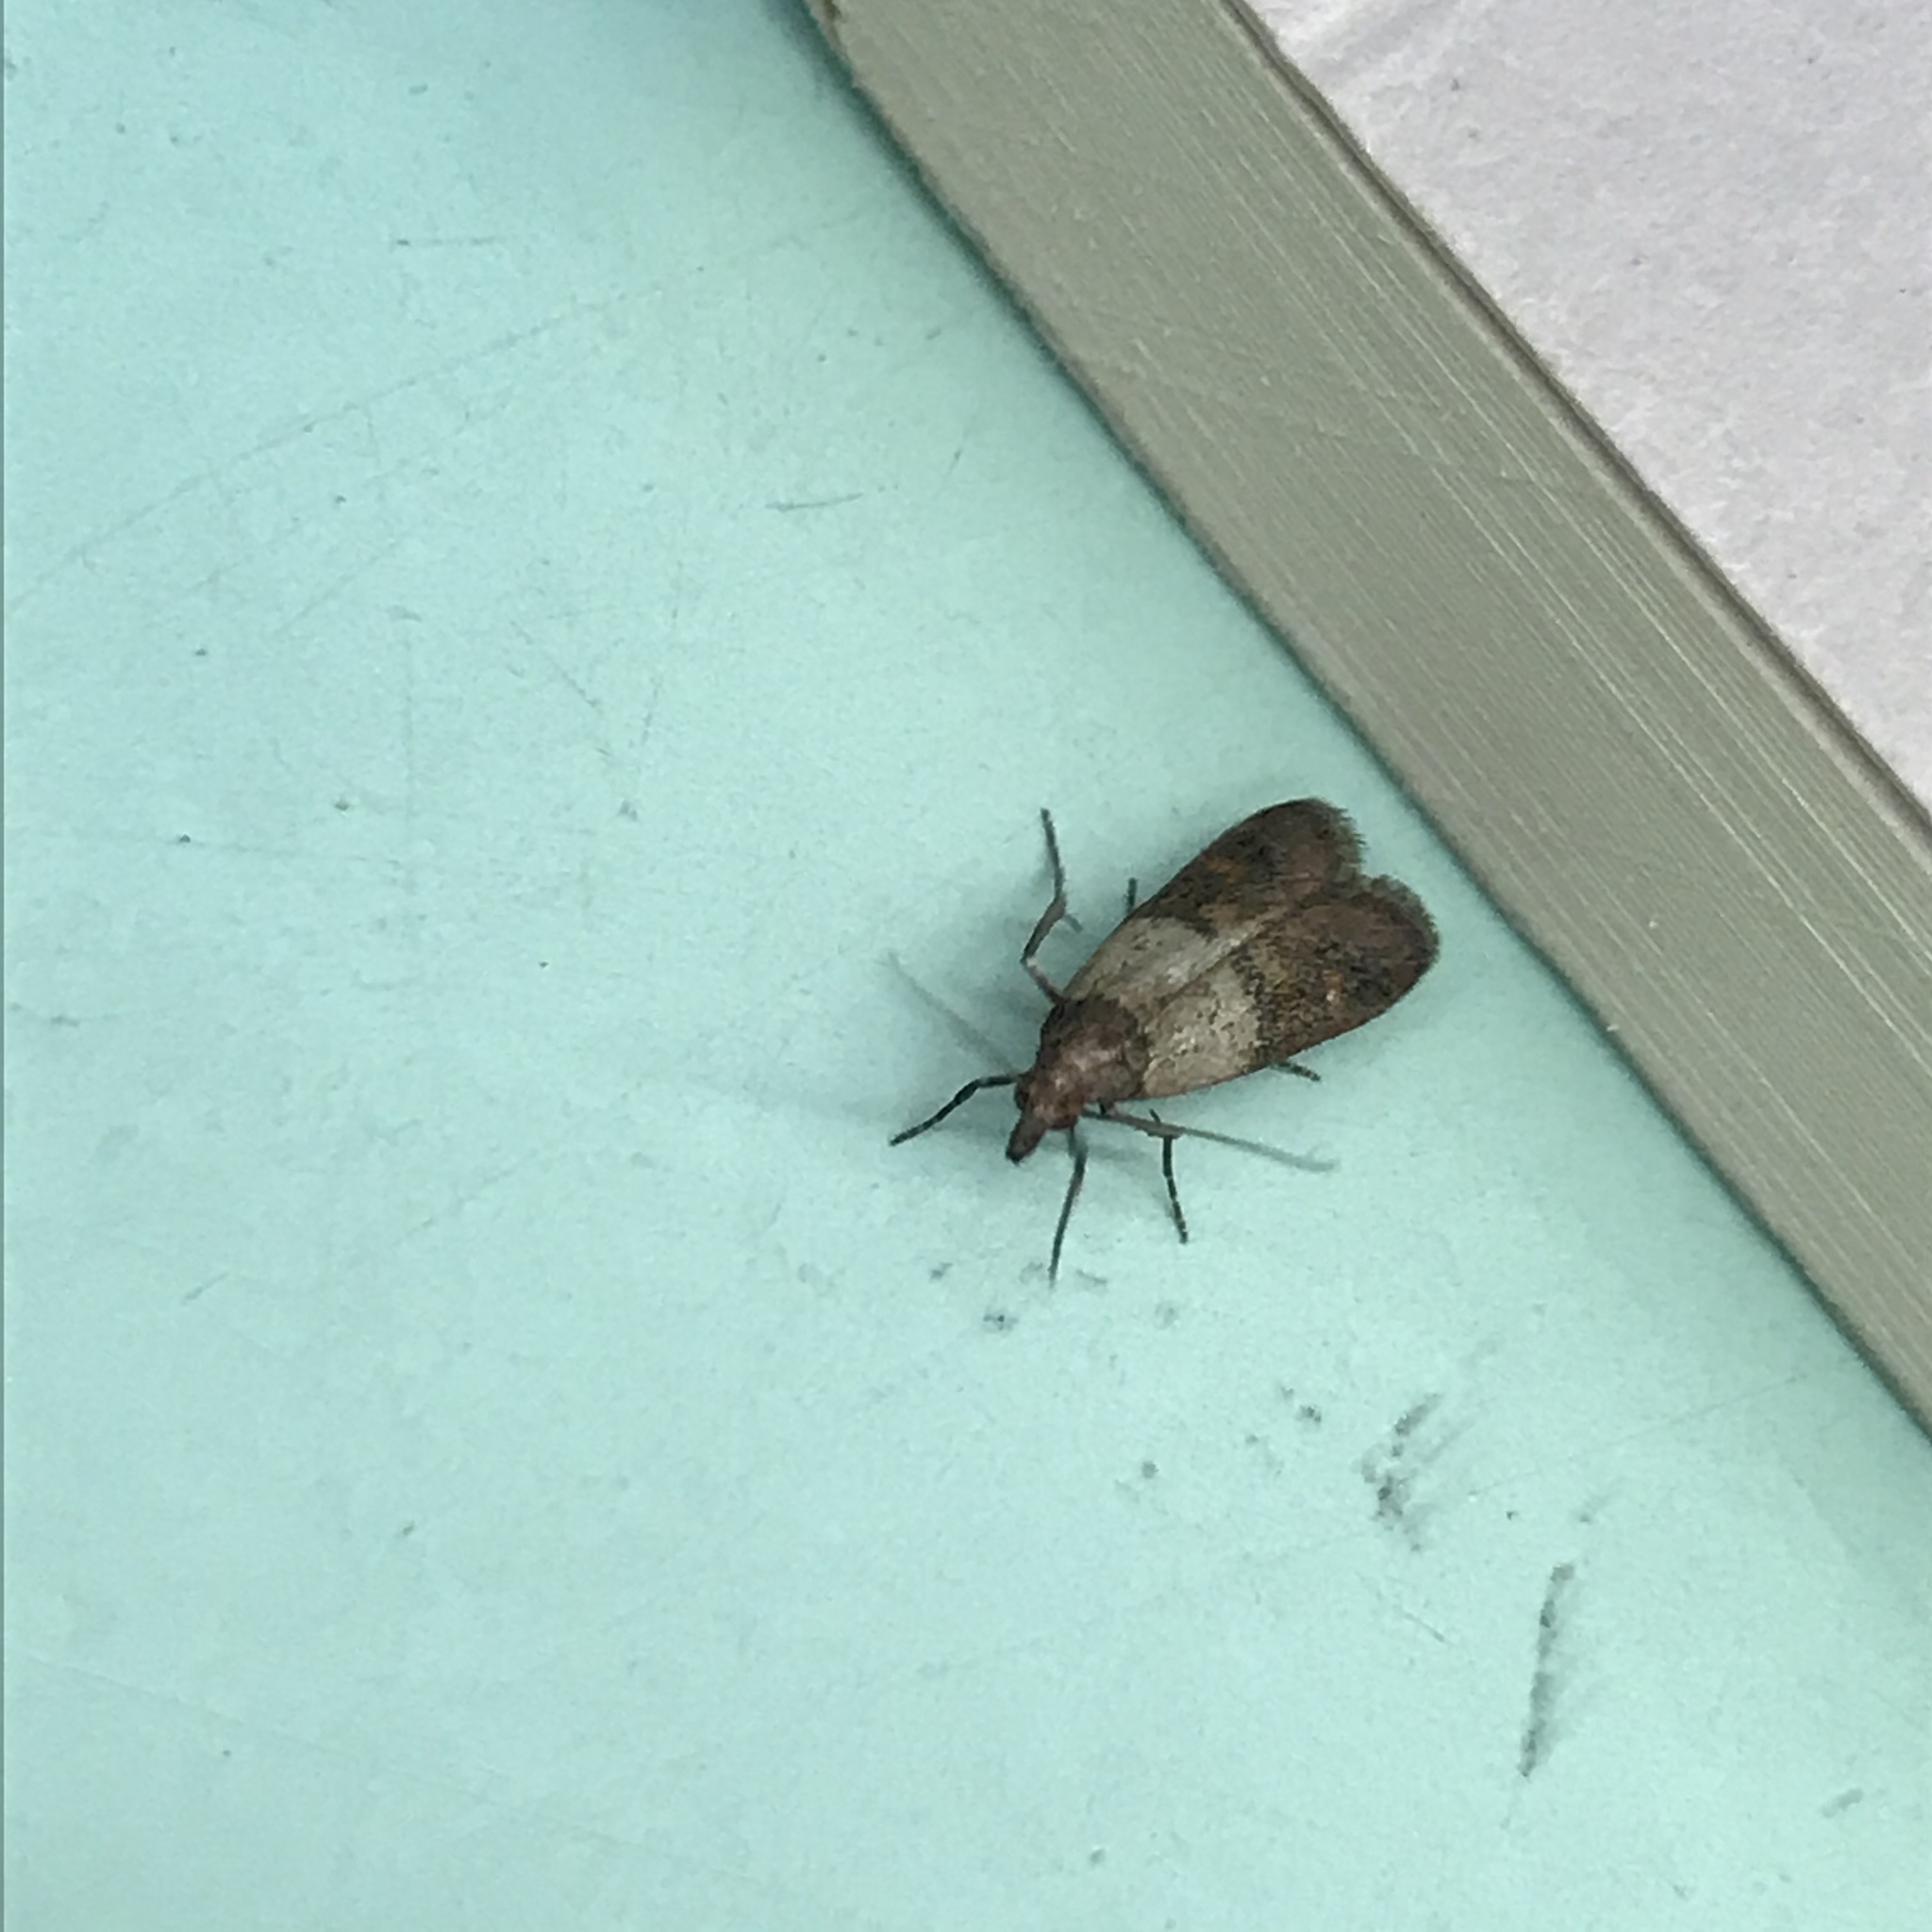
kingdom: Animalia
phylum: Arthropoda
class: Insecta
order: Lepidoptera
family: Pyralidae
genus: Plodia
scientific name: Plodia interpunctella
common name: Indian meal moth
